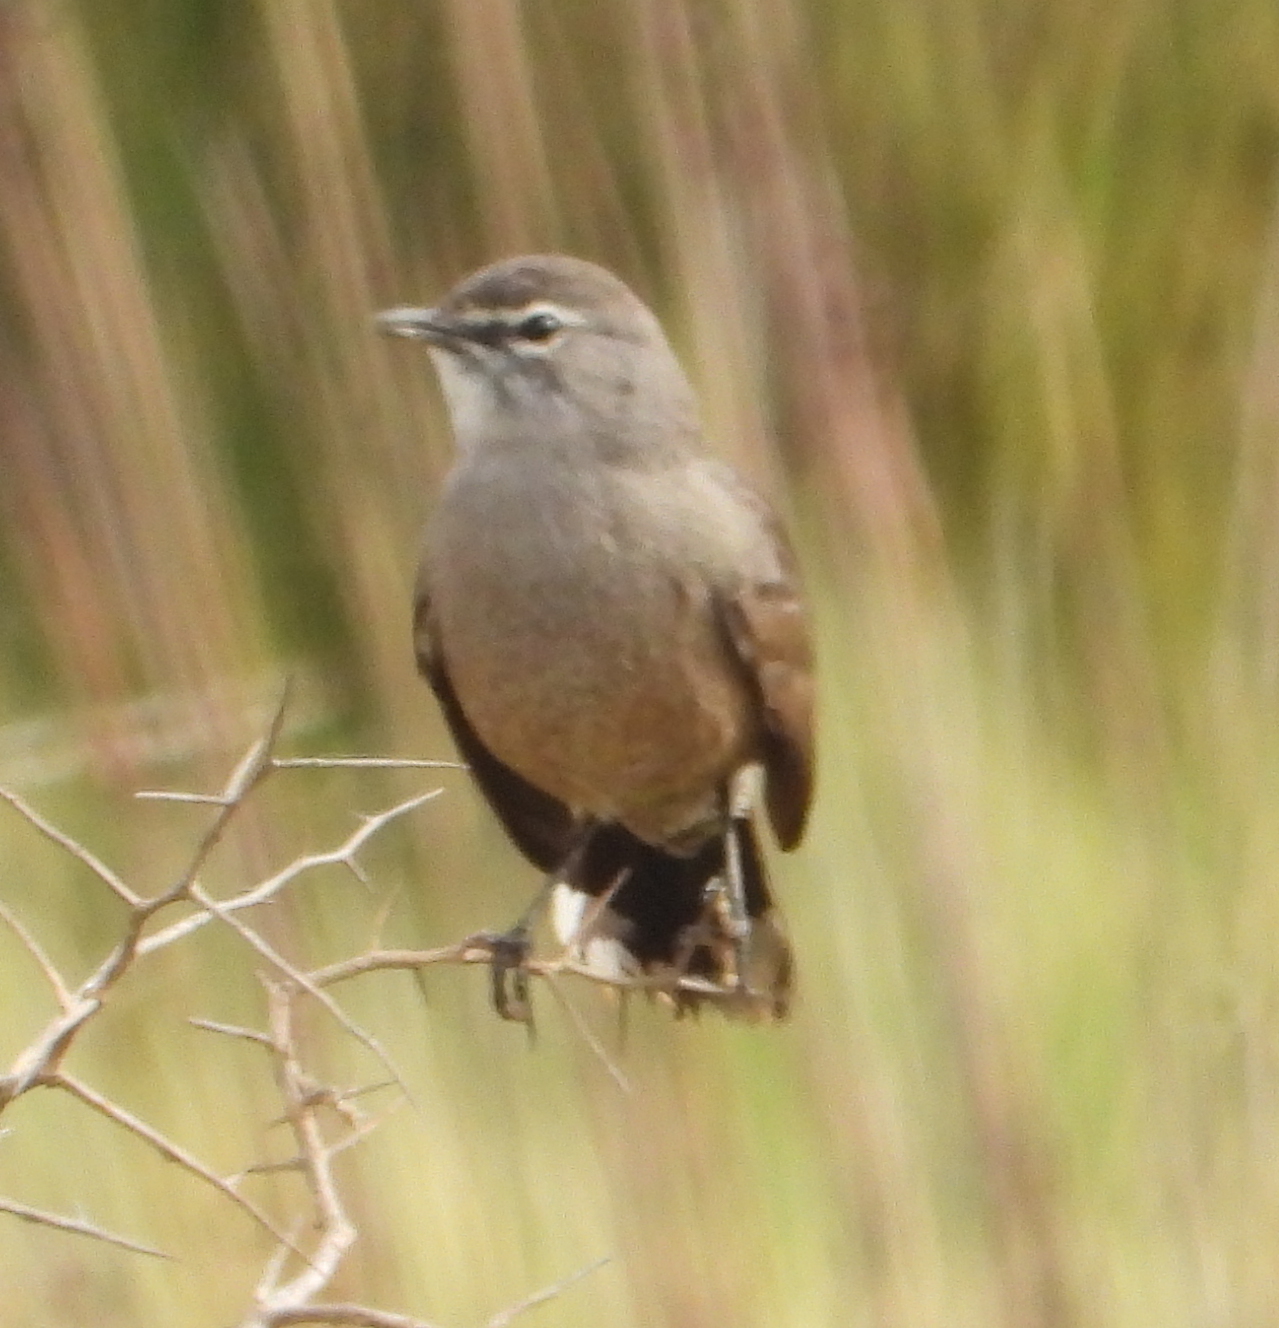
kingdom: Animalia
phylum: Chordata
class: Aves
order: Passeriformes
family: Muscicapidae
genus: Erythropygia
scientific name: Erythropygia coryphoeus
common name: Karoo scrub robin
